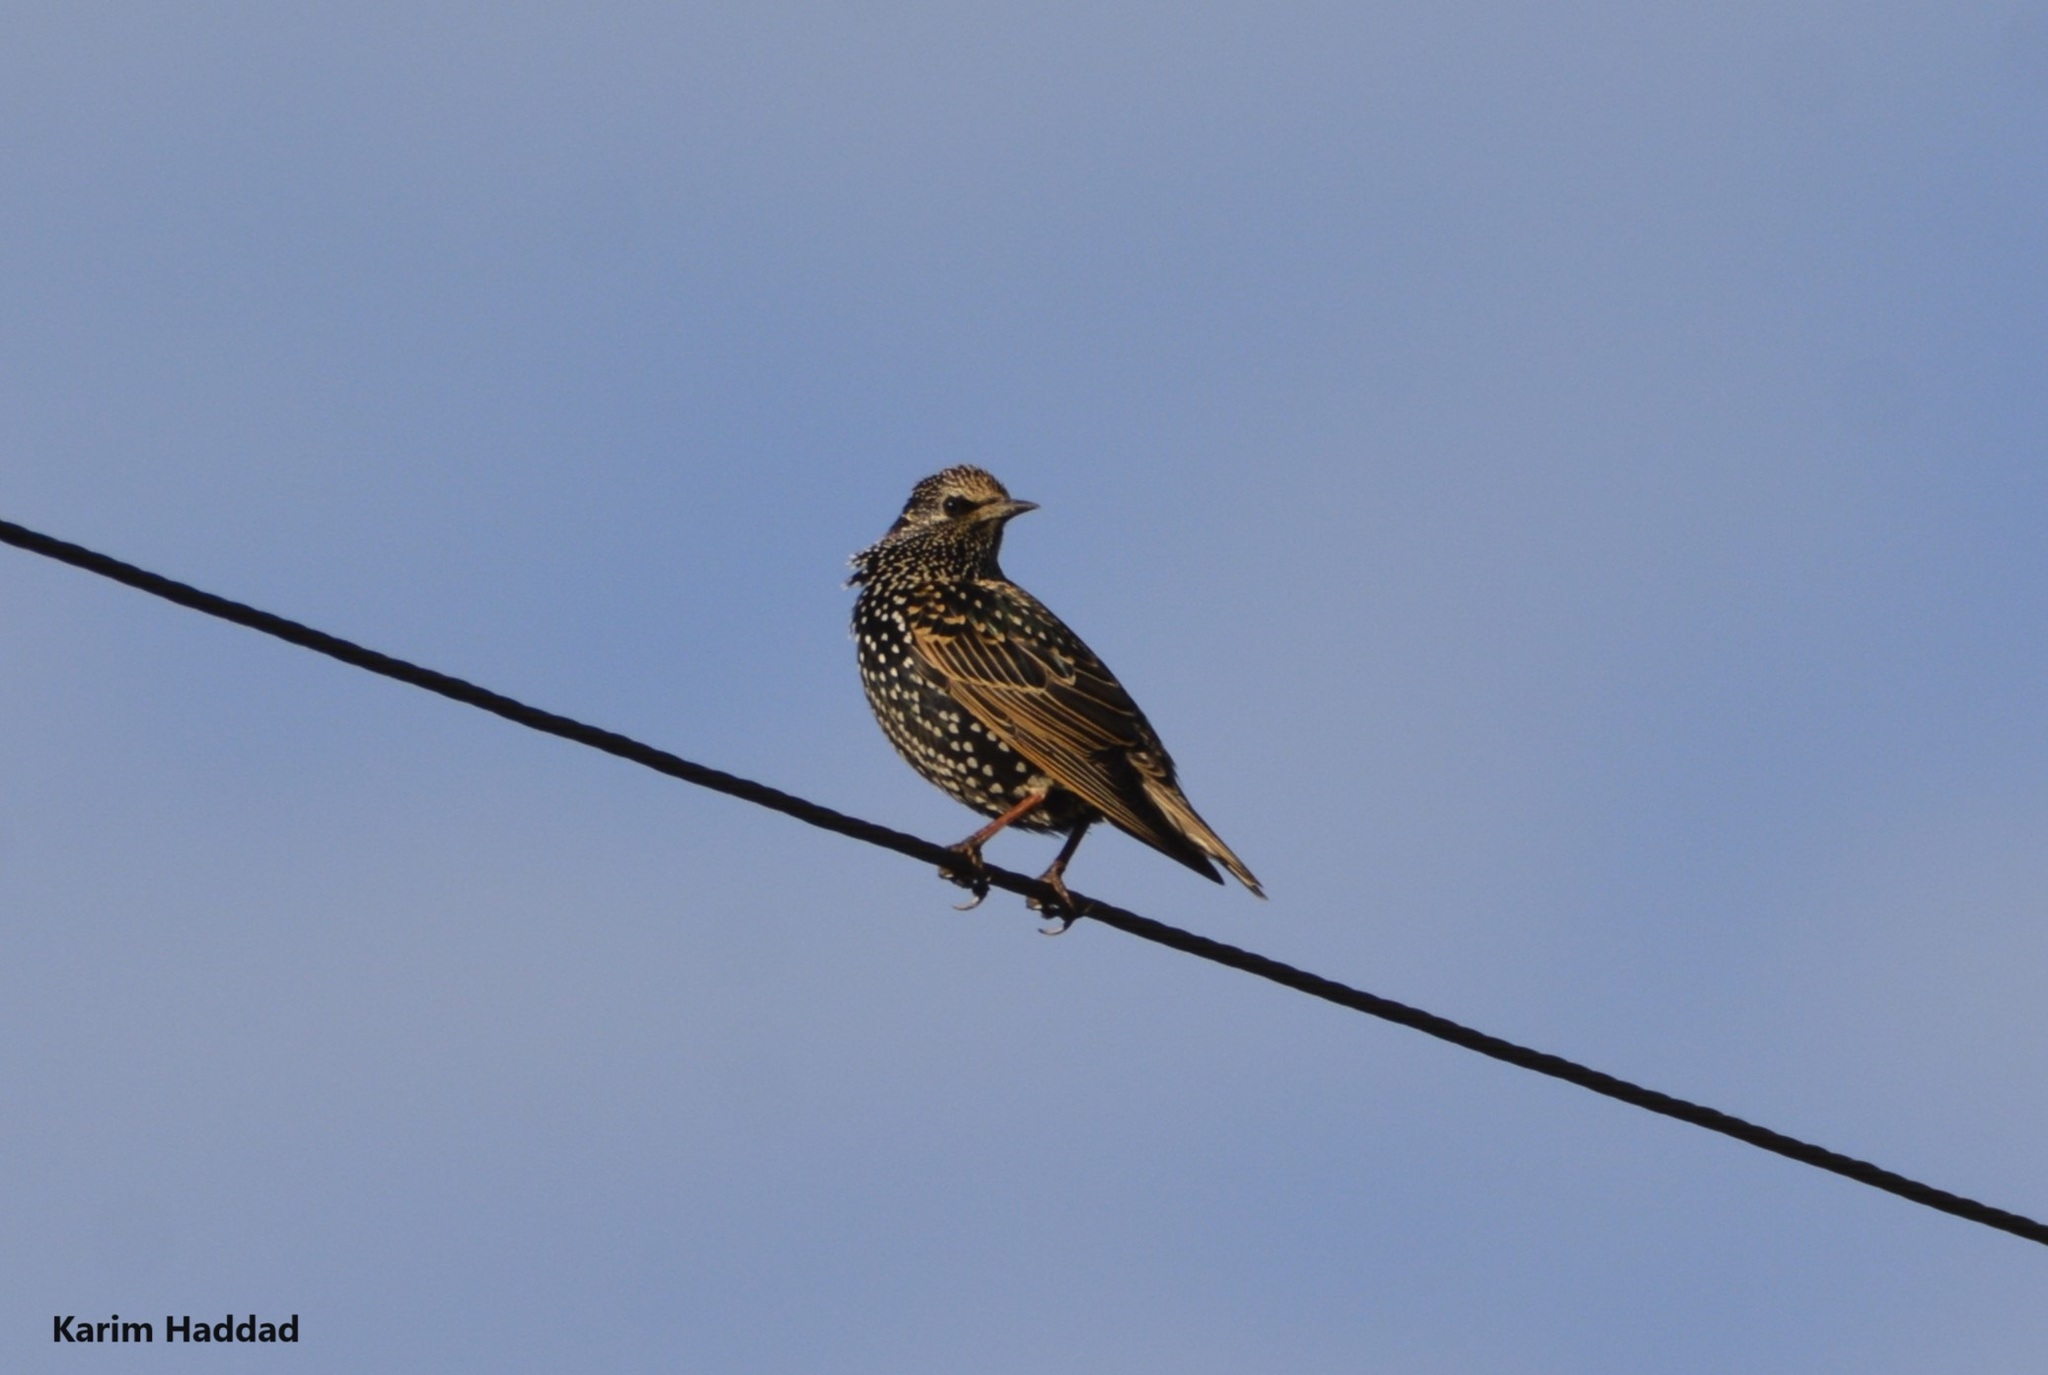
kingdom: Animalia
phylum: Chordata
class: Aves
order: Passeriformes
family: Sturnidae
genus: Sturnus
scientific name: Sturnus vulgaris
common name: Common starling
